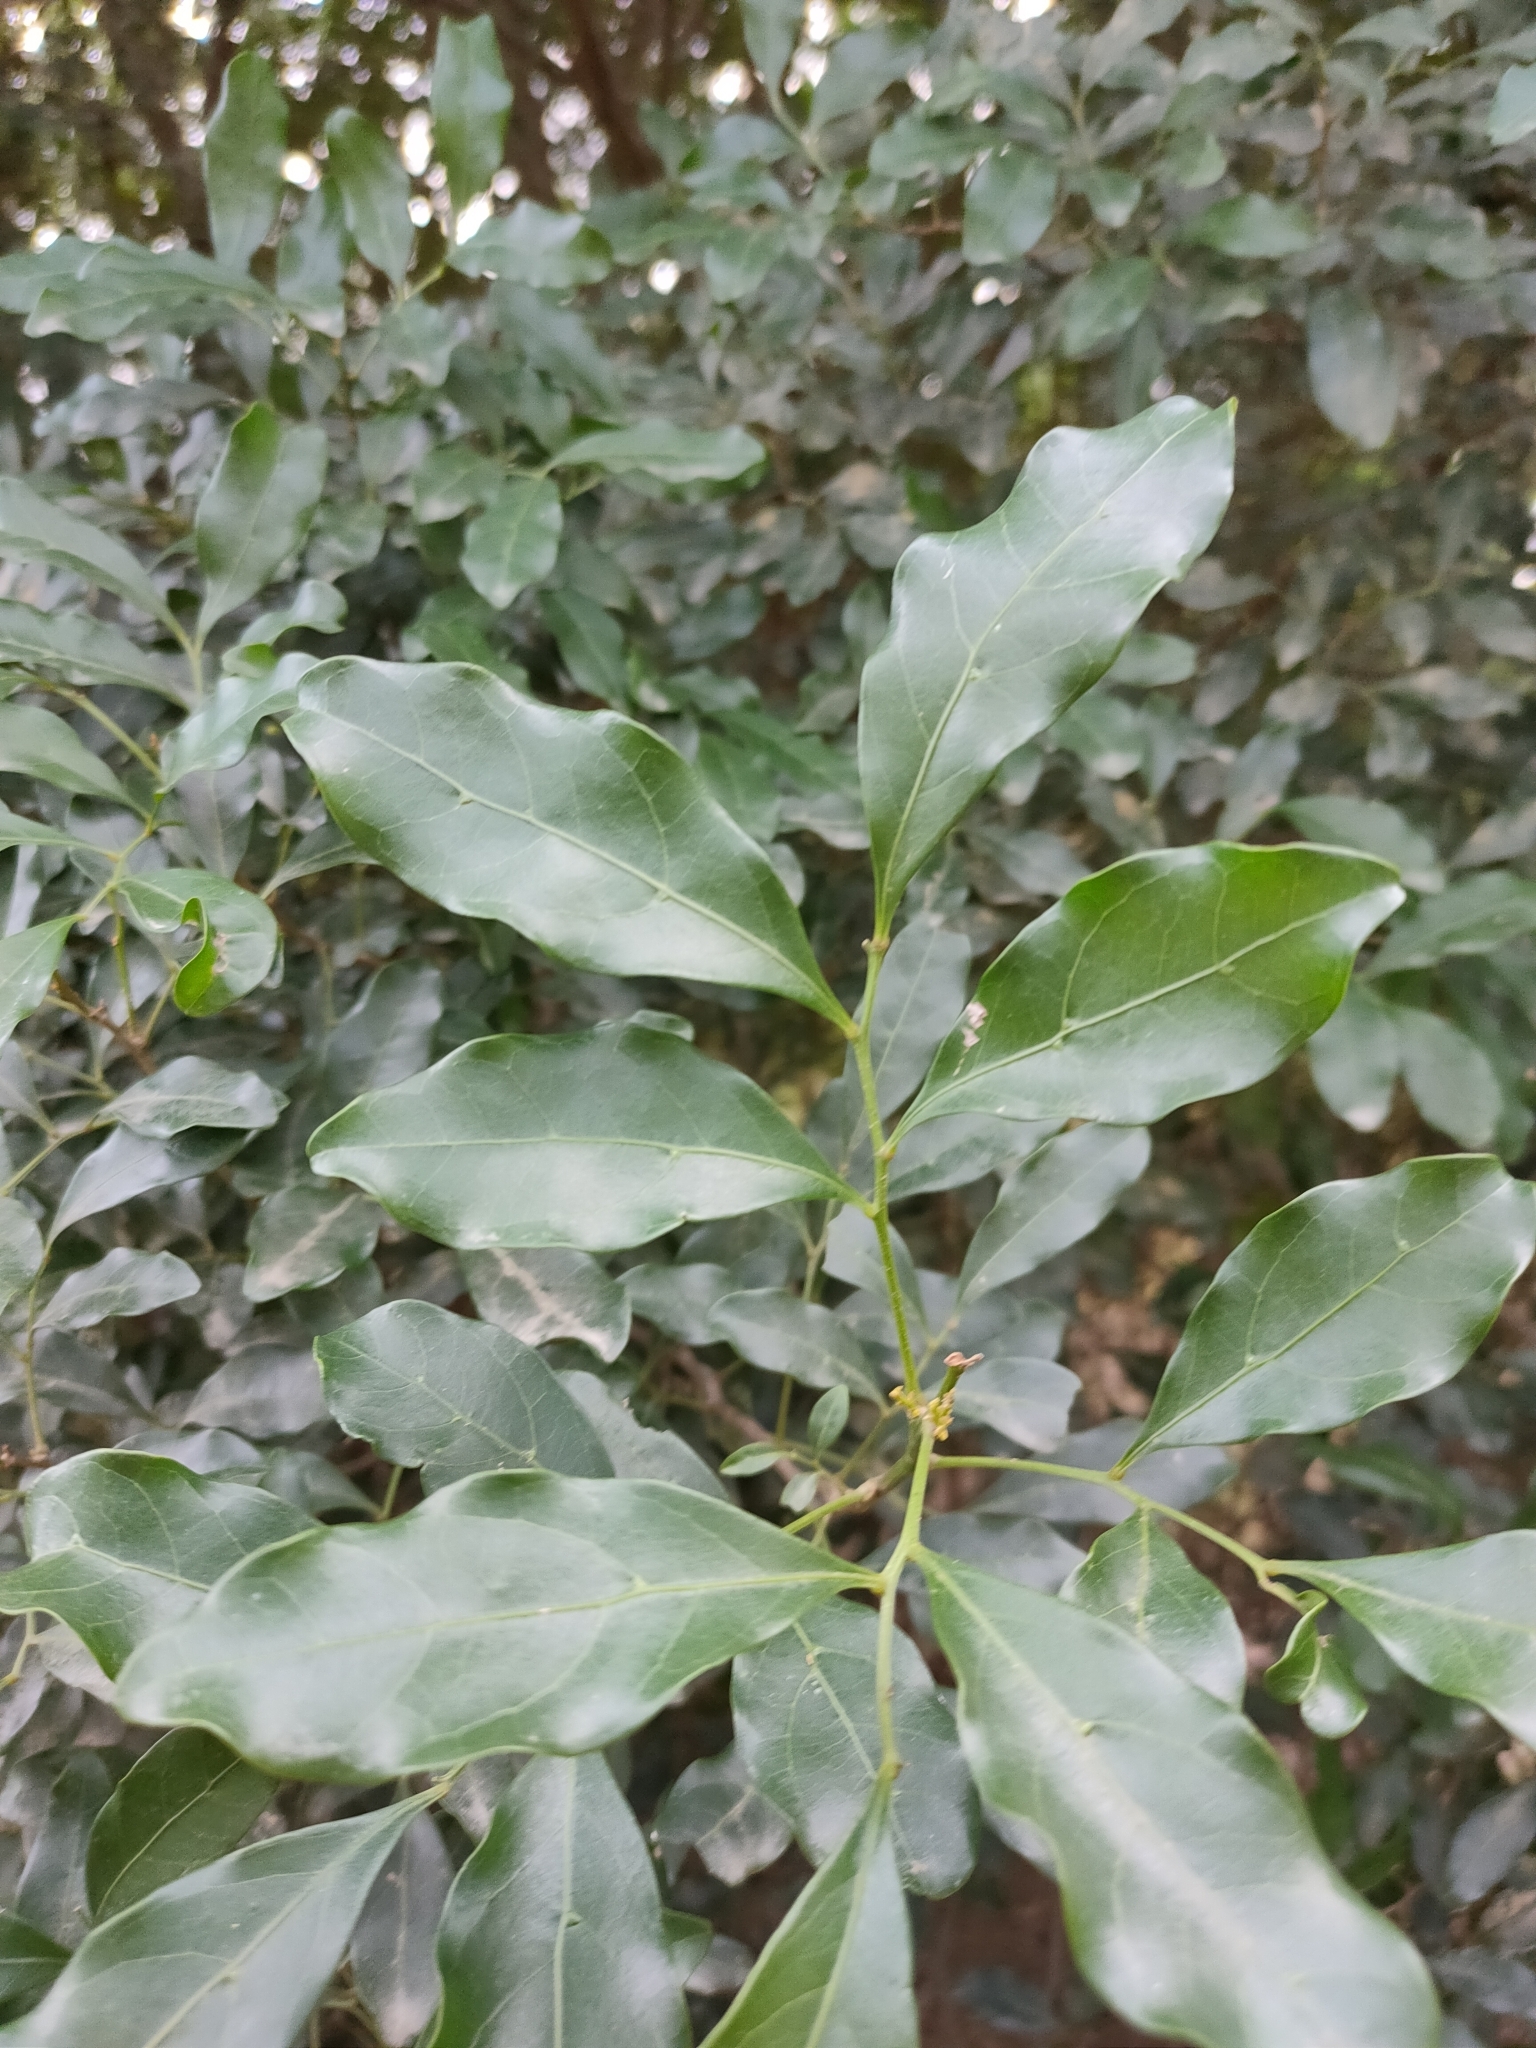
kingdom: Plantae
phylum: Tracheophyta
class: Magnoliopsida
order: Sapindales
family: Sapindaceae
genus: Toechima
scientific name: Toechima tenax
